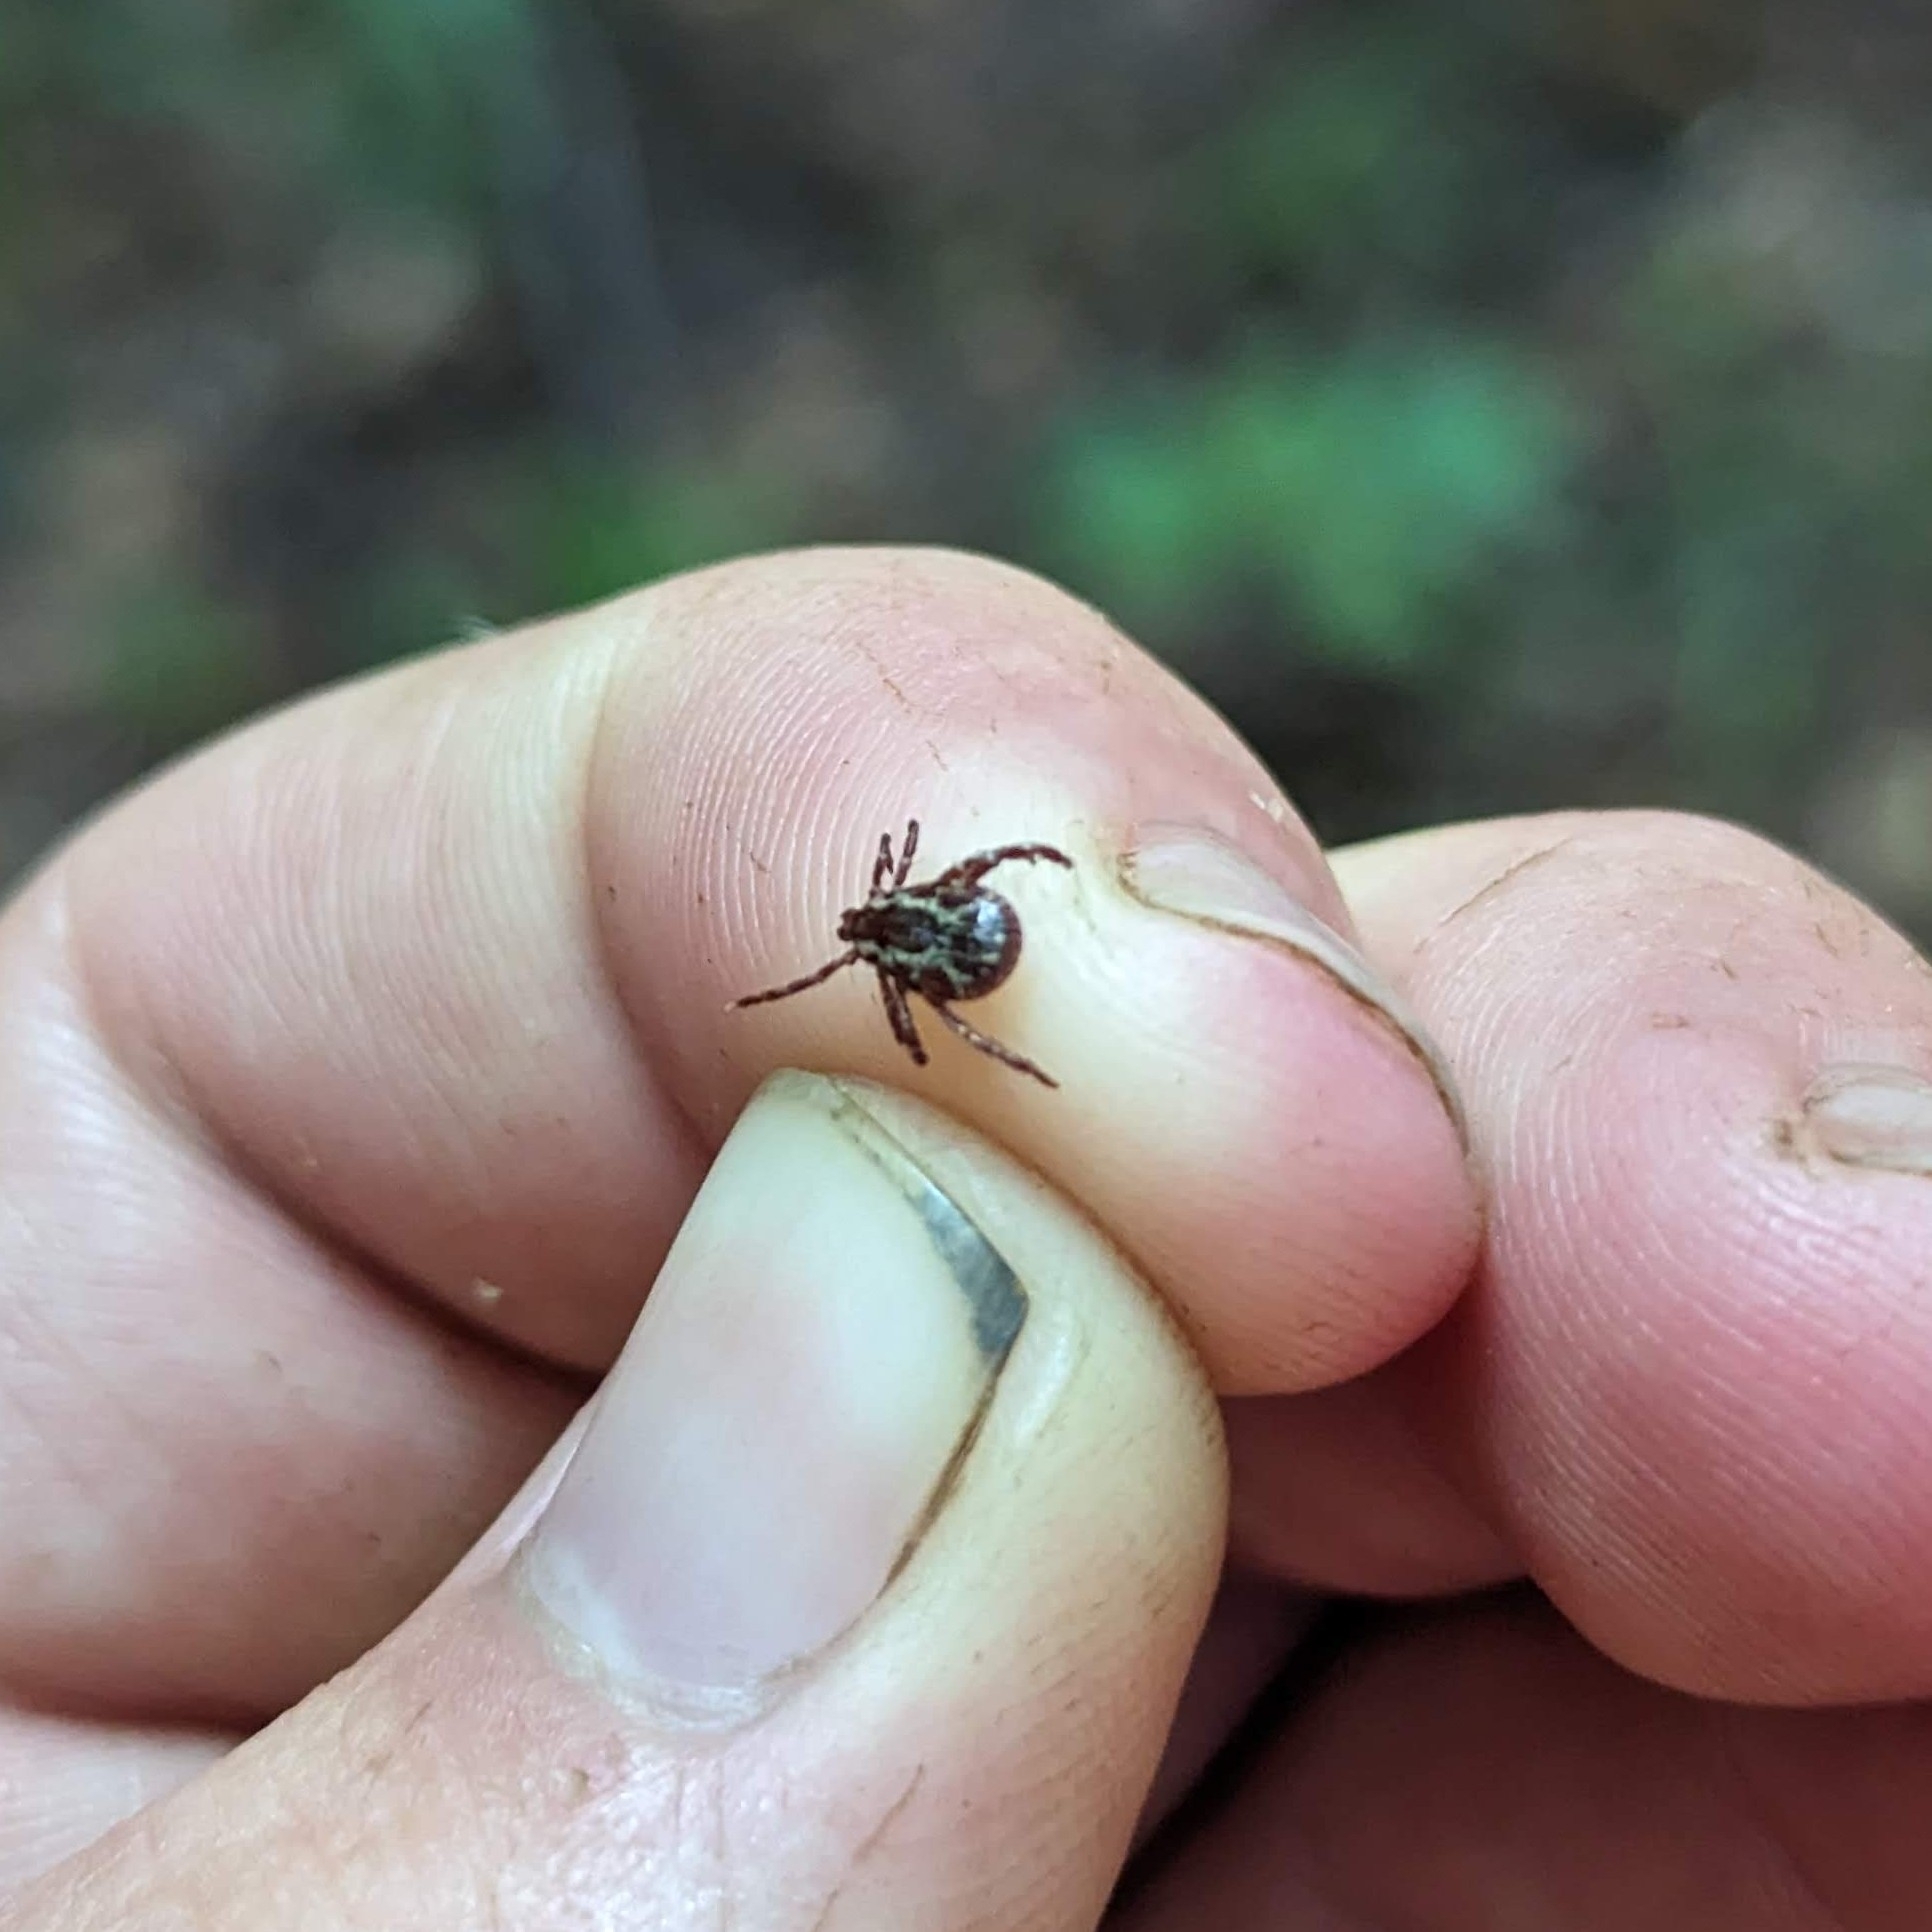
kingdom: Animalia
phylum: Arthropoda
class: Arachnida
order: Ixodida
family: Ixodidae
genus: Dermacentor
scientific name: Dermacentor variabilis
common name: American dog tick
